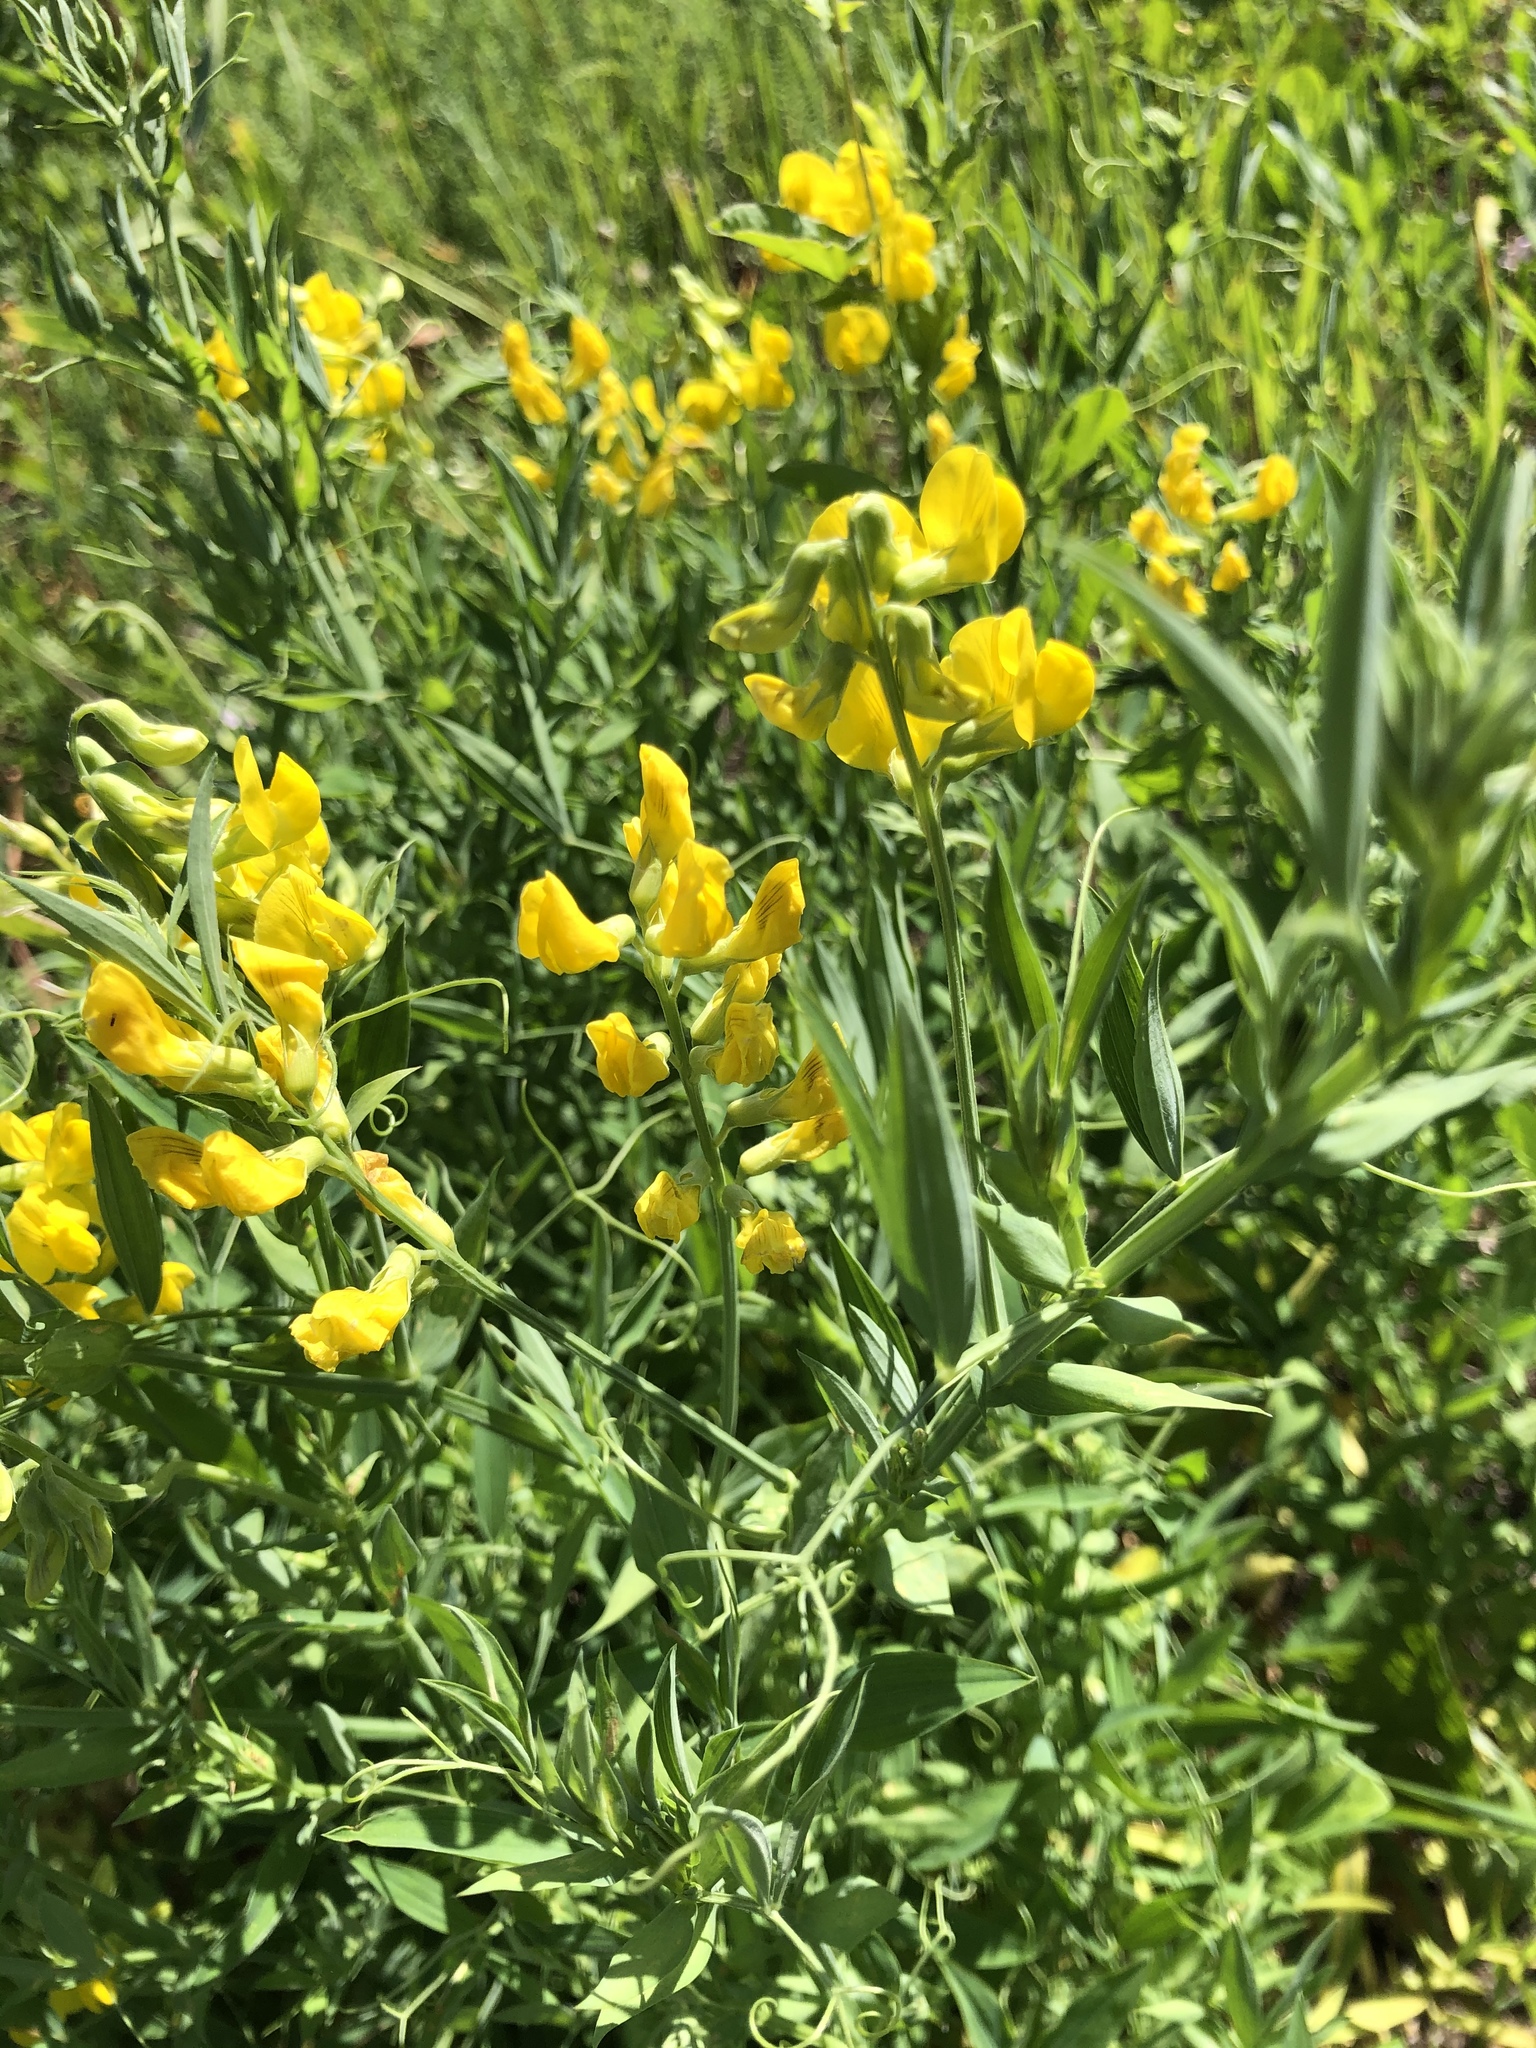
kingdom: Plantae
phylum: Tracheophyta
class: Magnoliopsida
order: Fabales
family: Fabaceae
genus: Lathyrus
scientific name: Lathyrus pratensis
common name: Meadow vetchling
